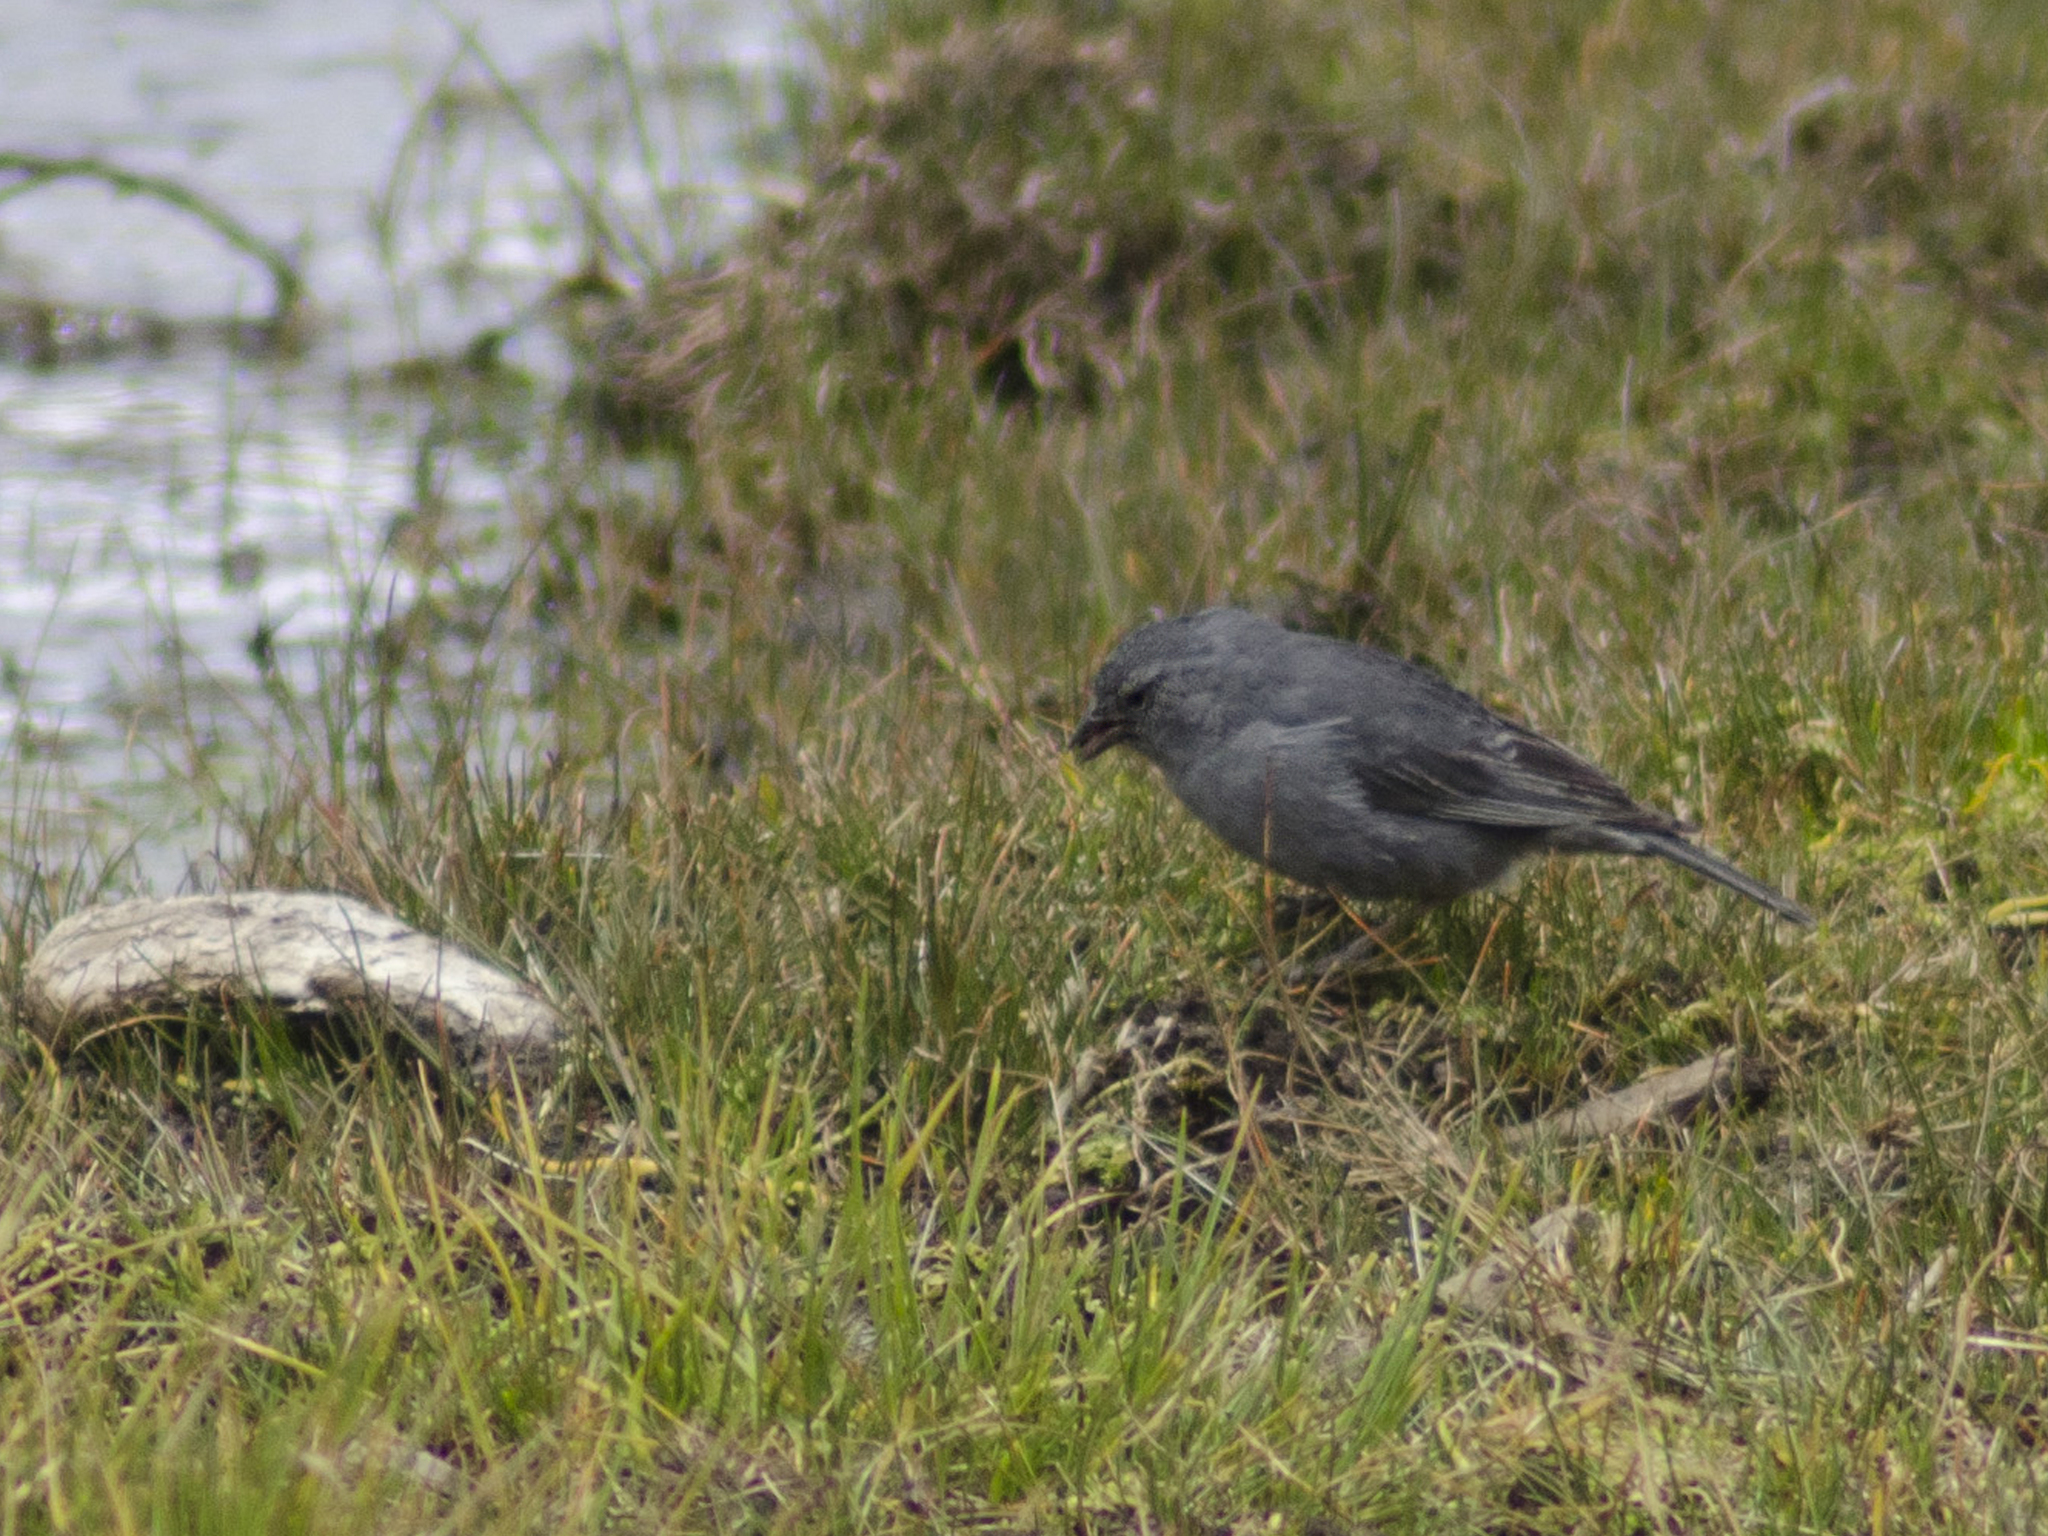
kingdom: Animalia
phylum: Chordata
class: Aves
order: Passeriformes
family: Thraupidae
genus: Geospizopsis
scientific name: Geospizopsis unicolor
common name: Plumbeous sierra-finch
